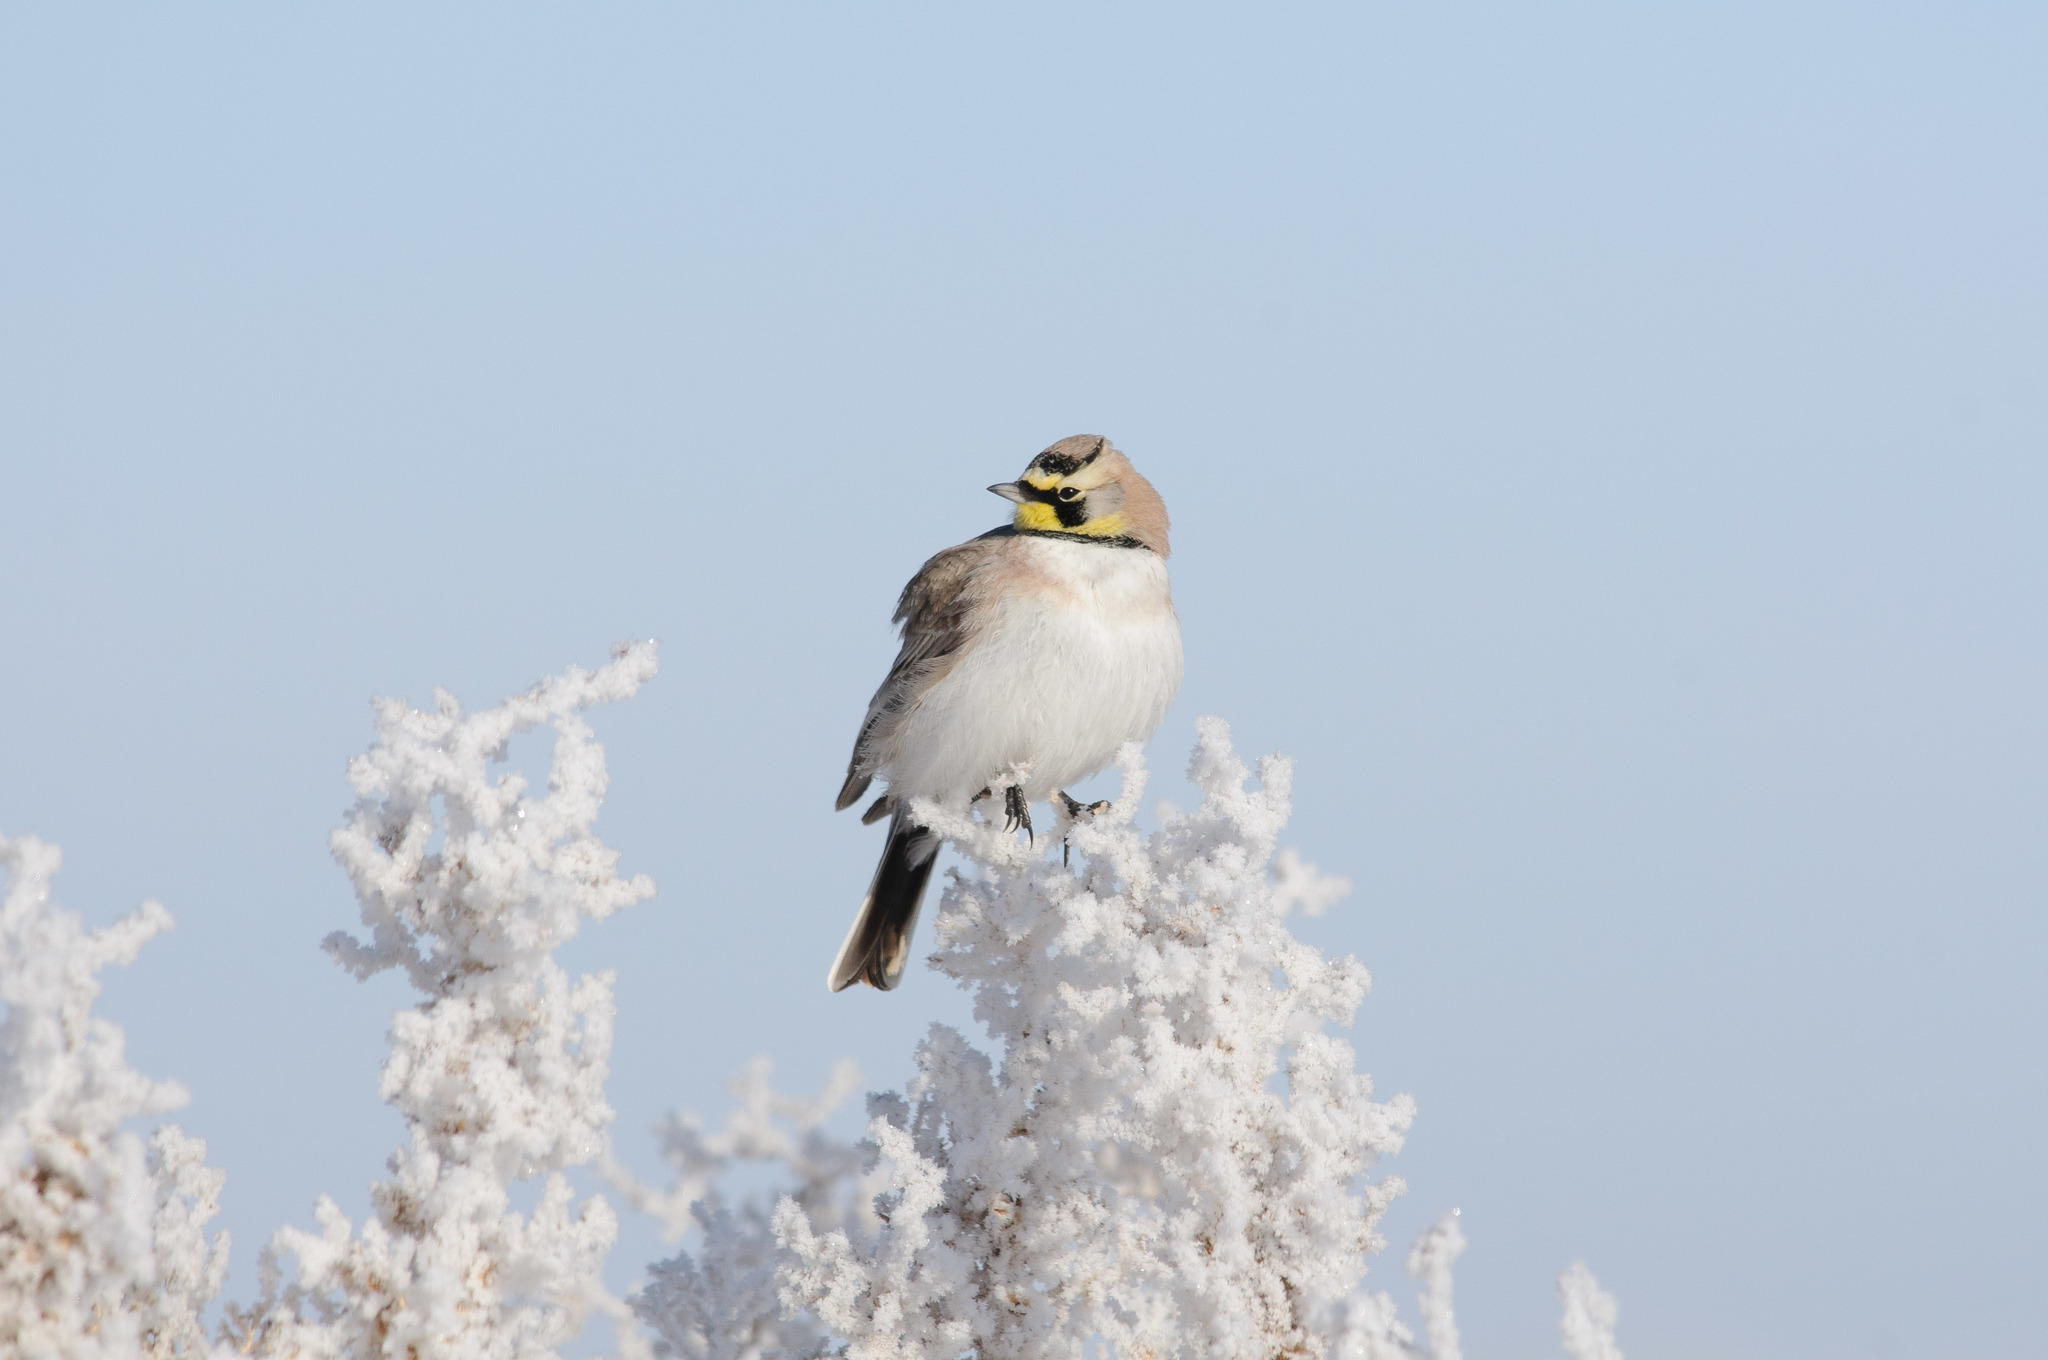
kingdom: Animalia
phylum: Chordata
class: Aves
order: Passeriformes
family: Alaudidae
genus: Eremophila
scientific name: Eremophila alpestris
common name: Horned lark
